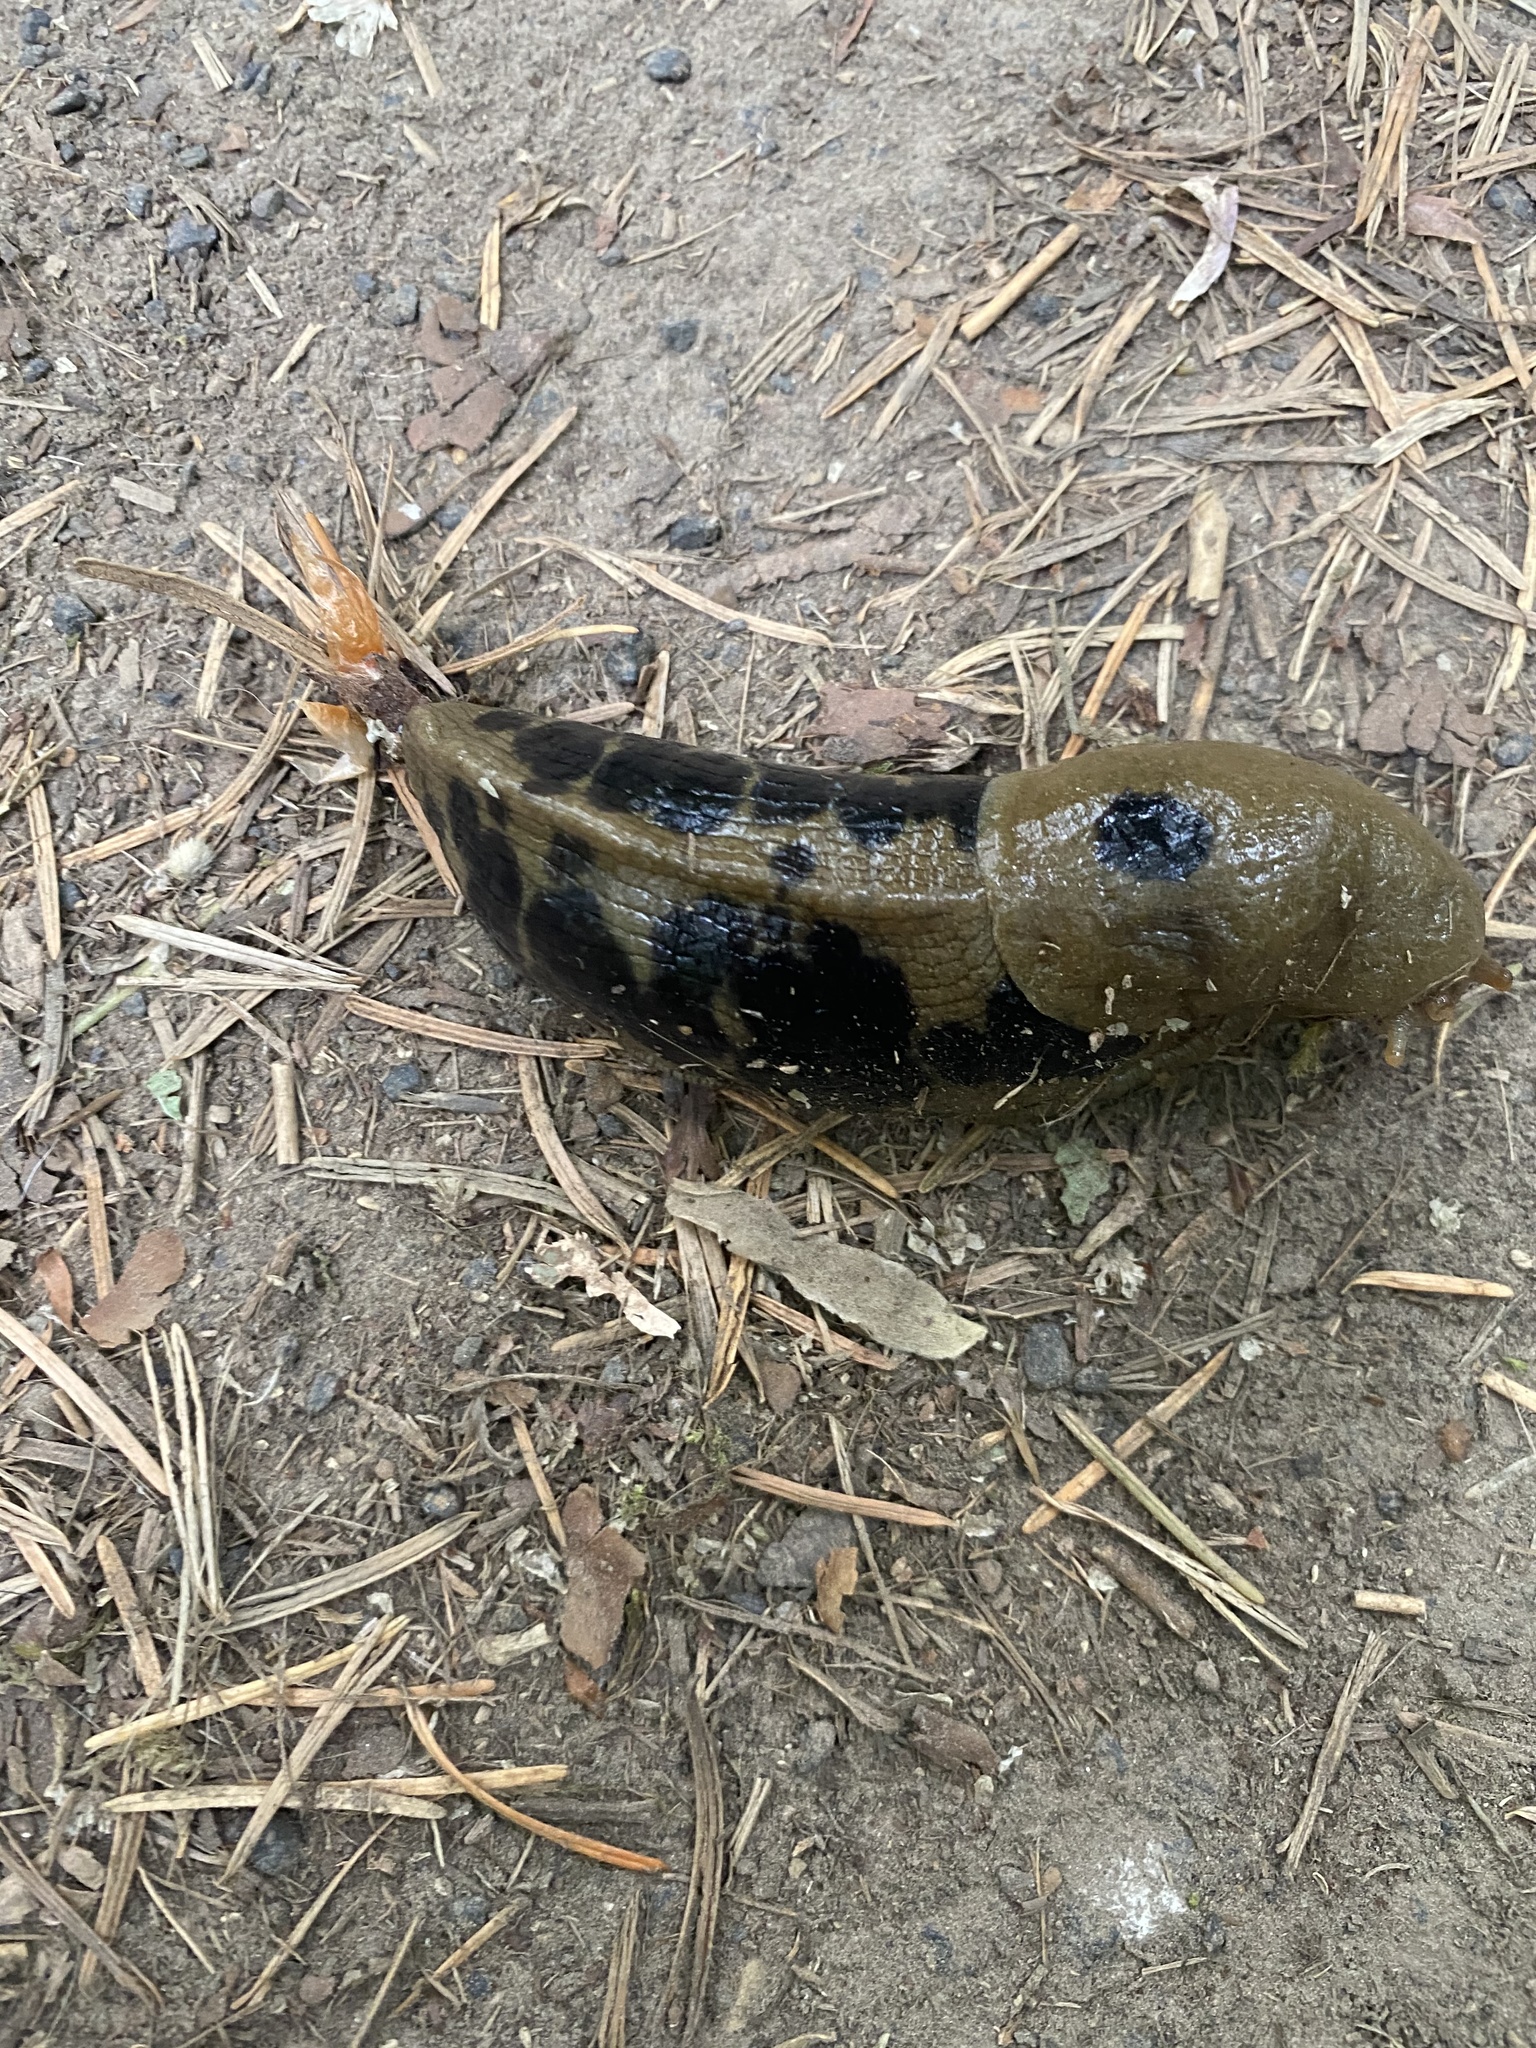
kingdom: Animalia
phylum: Mollusca
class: Gastropoda
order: Stylommatophora
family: Ariolimacidae
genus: Ariolimax
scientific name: Ariolimax columbianus
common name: Pacific banana slug
